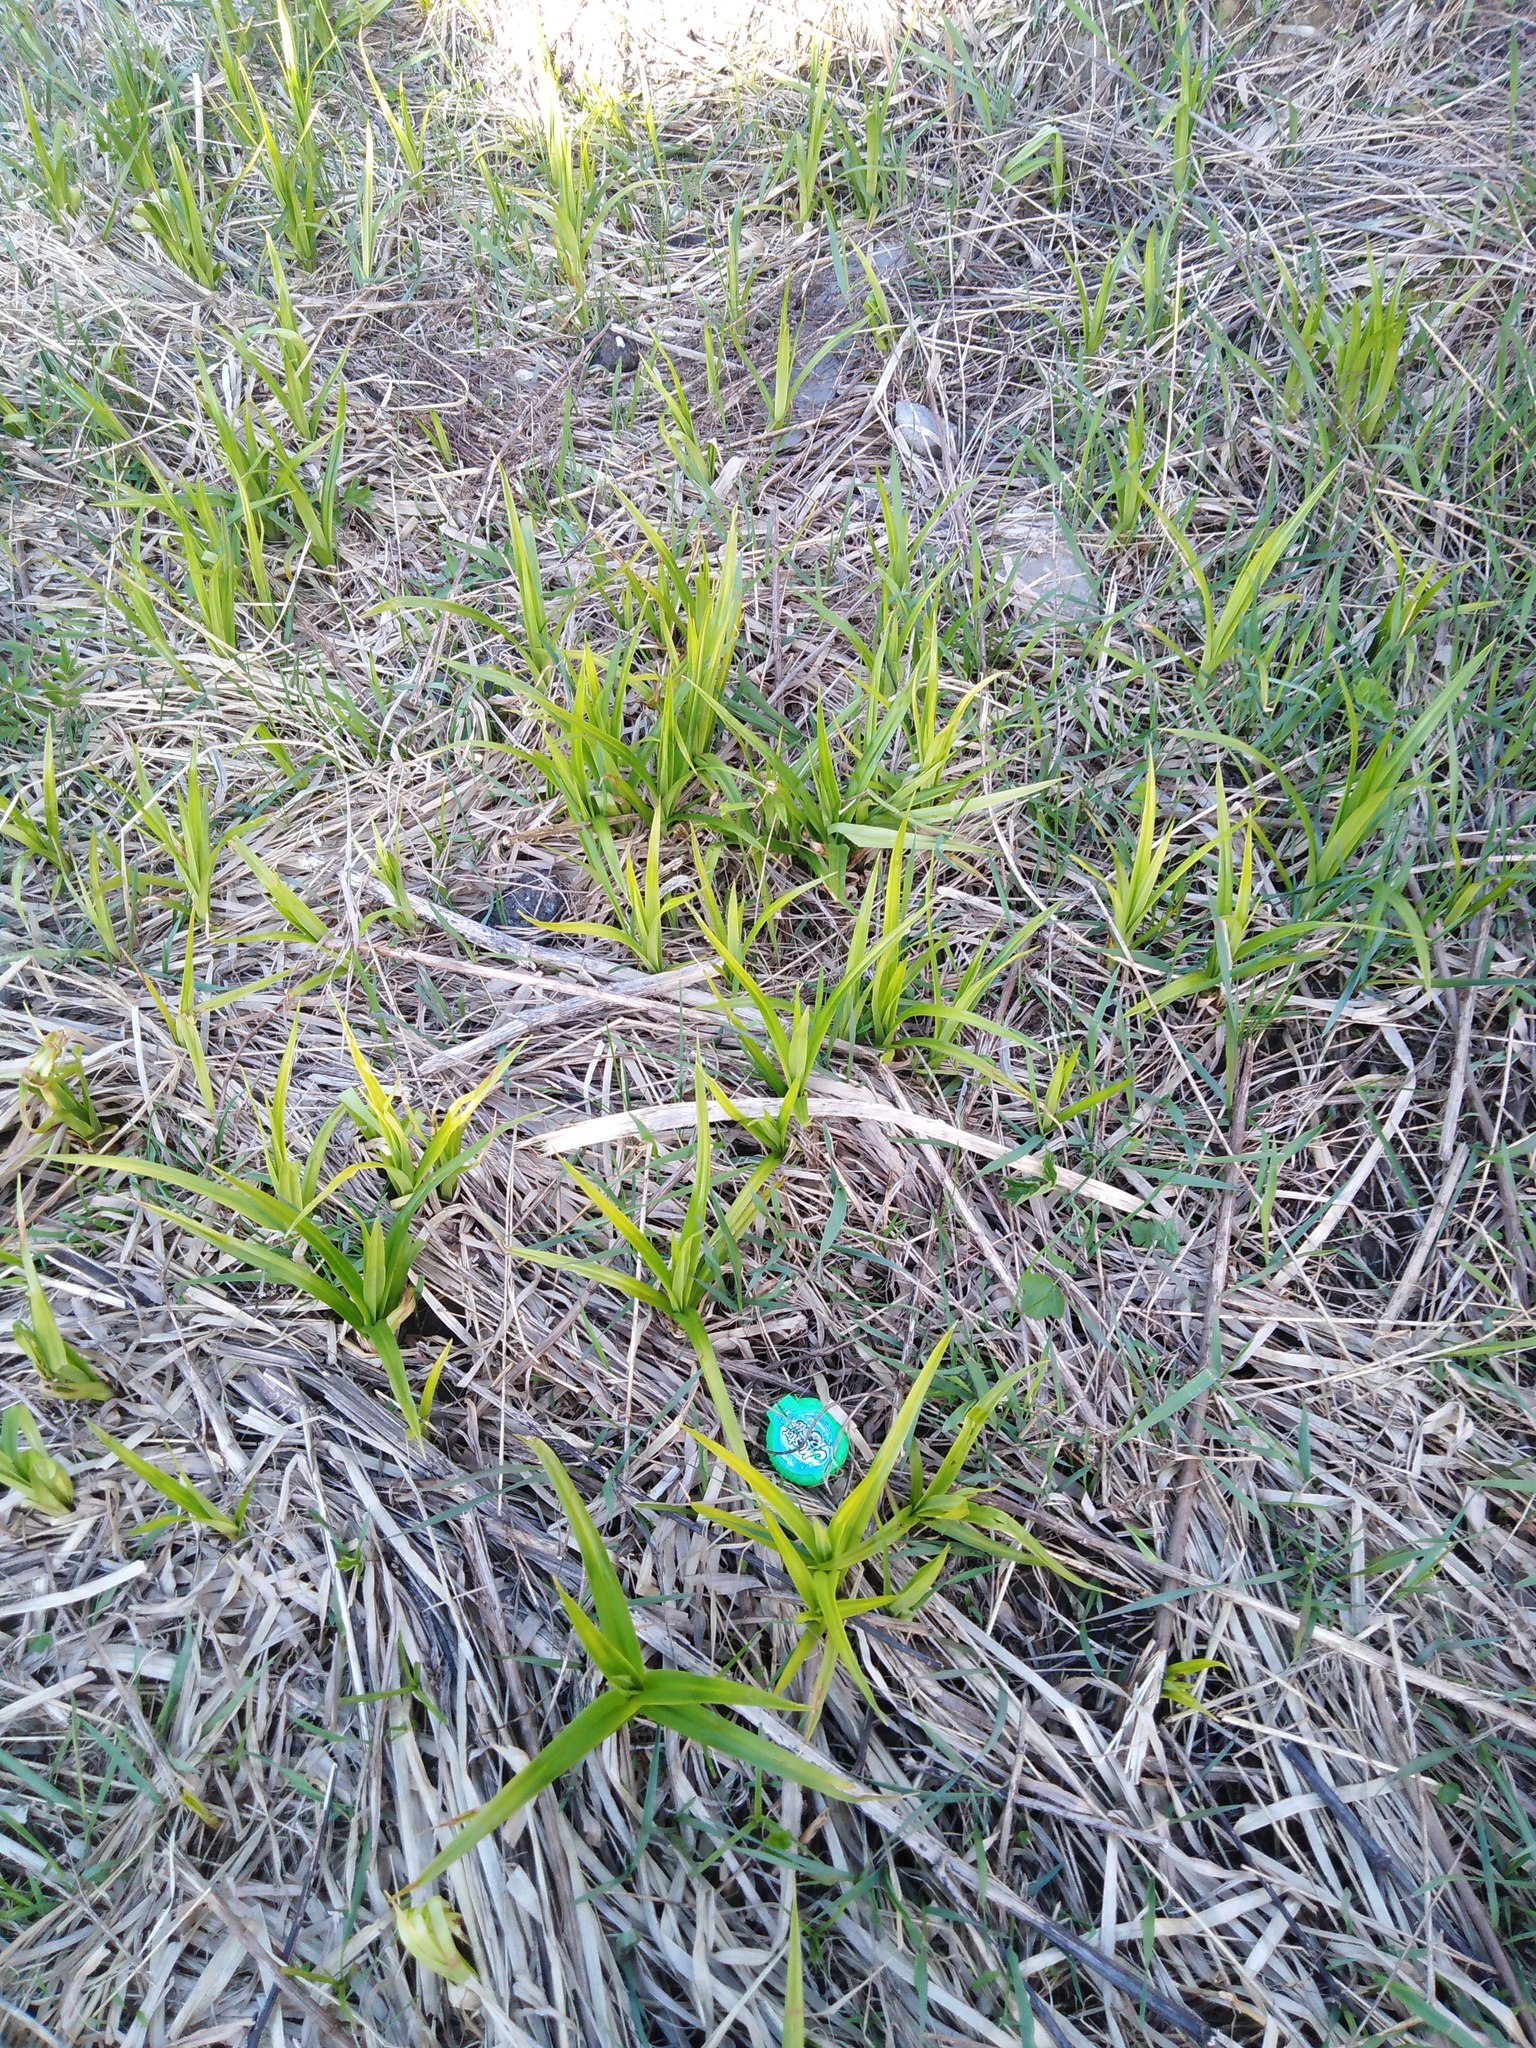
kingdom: Plantae
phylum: Tracheophyta
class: Liliopsida
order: Poales
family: Cyperaceae
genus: Scirpus
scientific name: Scirpus sylvaticus
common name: Wood club-rush
